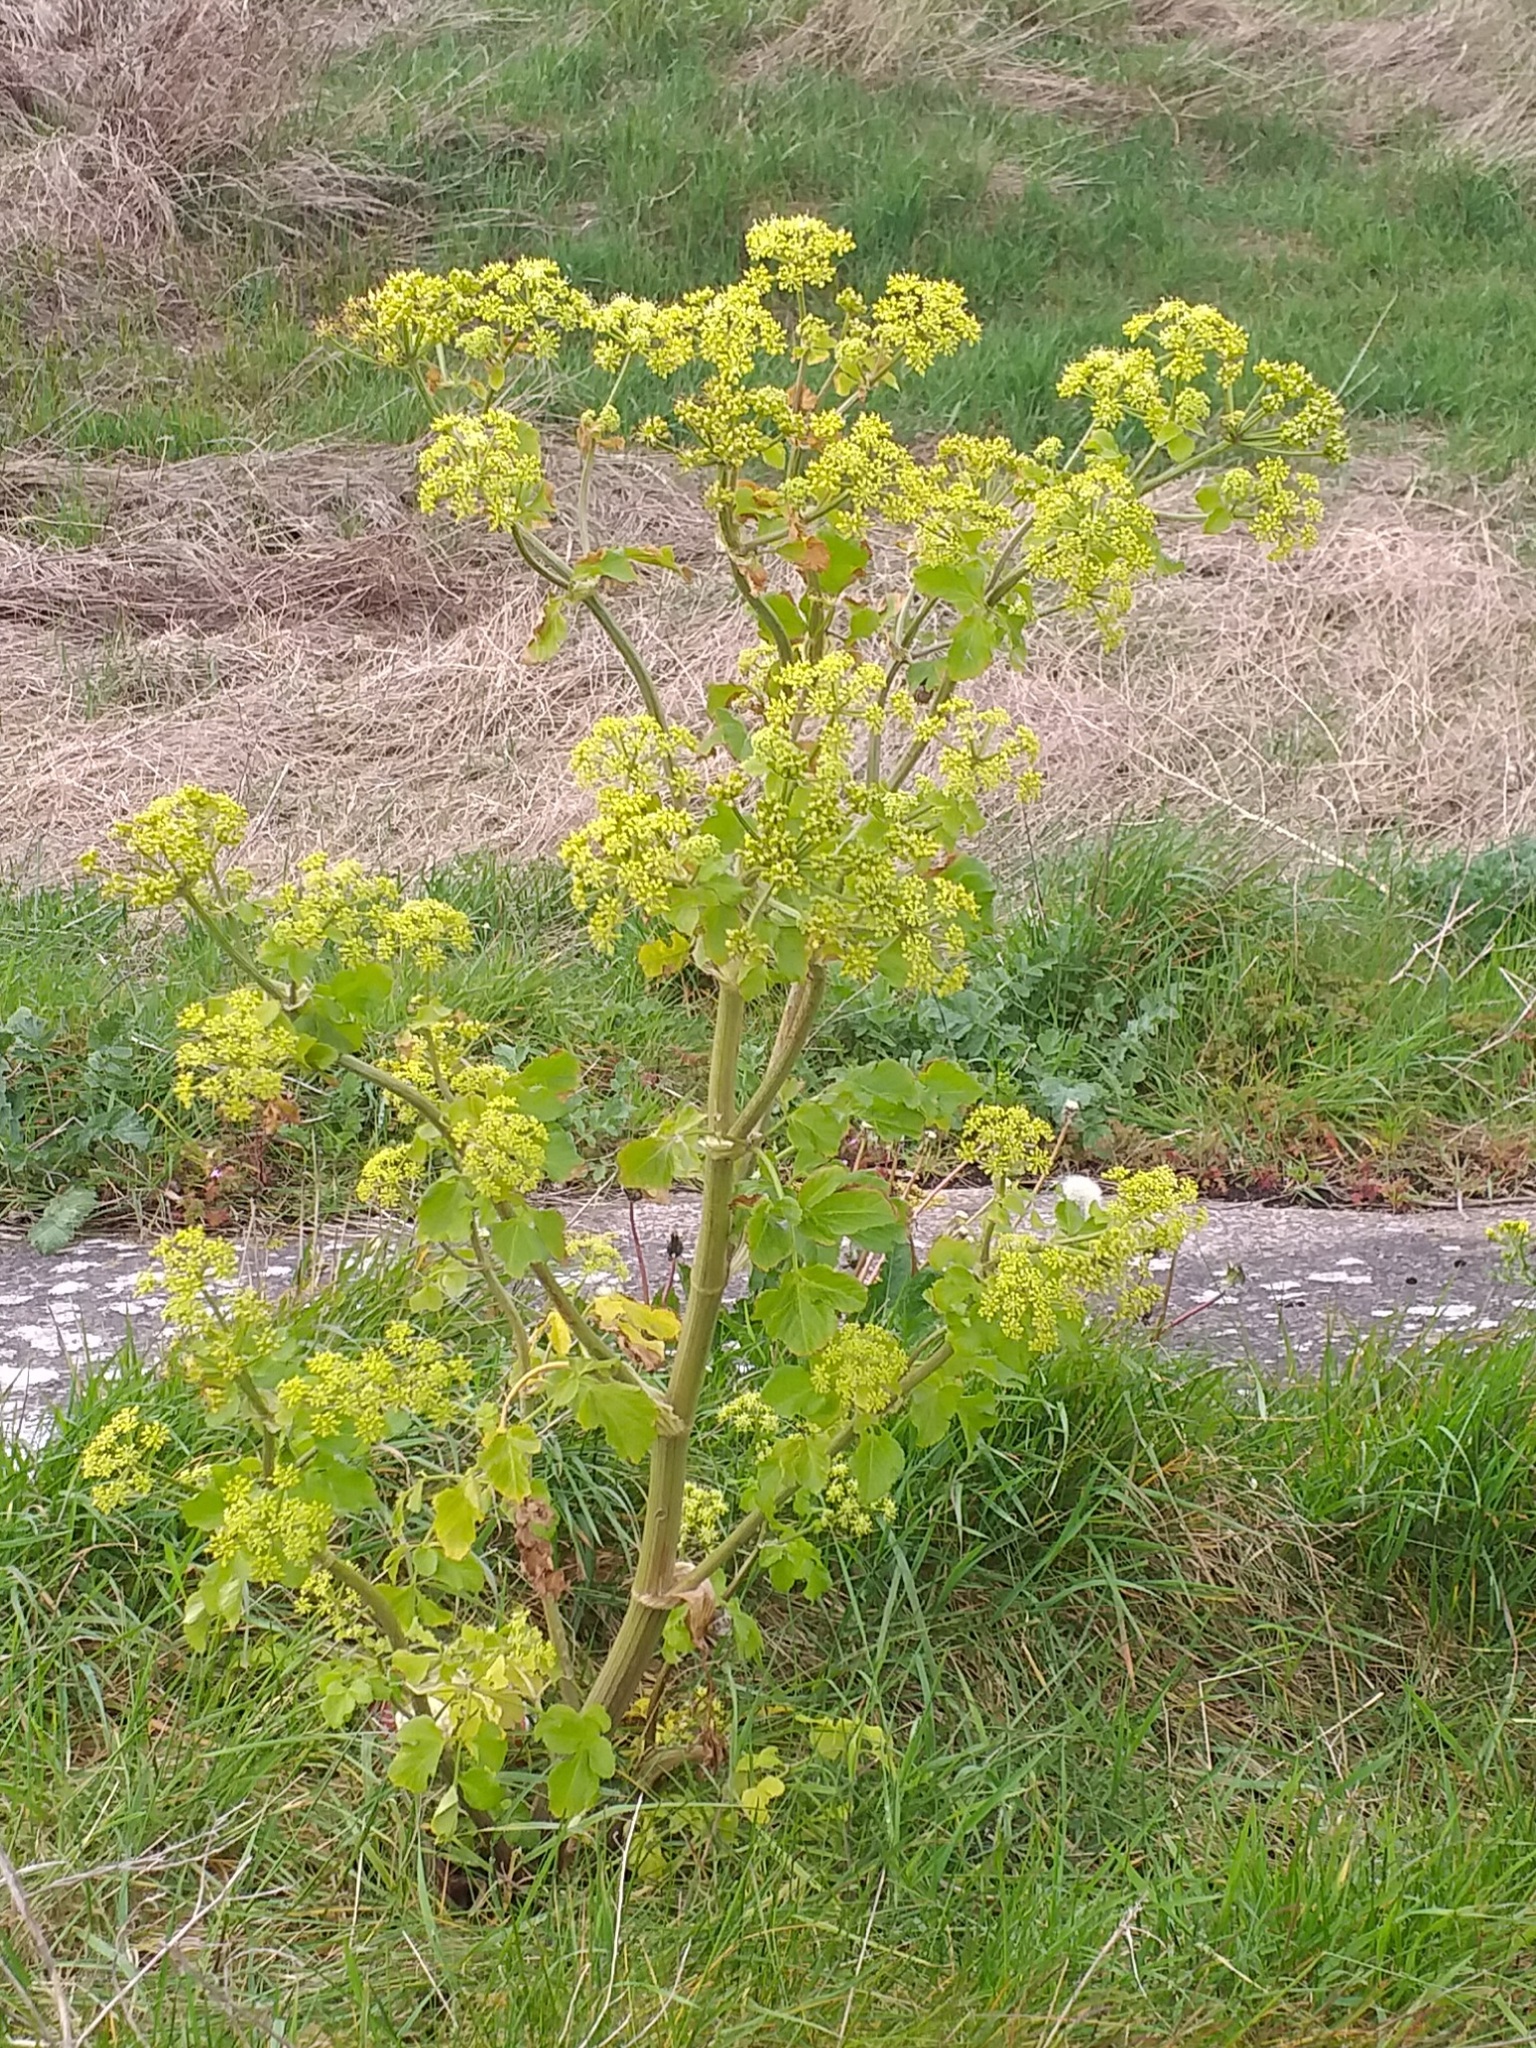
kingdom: Plantae
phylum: Tracheophyta
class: Magnoliopsida
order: Apiales
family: Apiaceae
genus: Smyrnium
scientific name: Smyrnium olusatrum
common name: Alexanders
